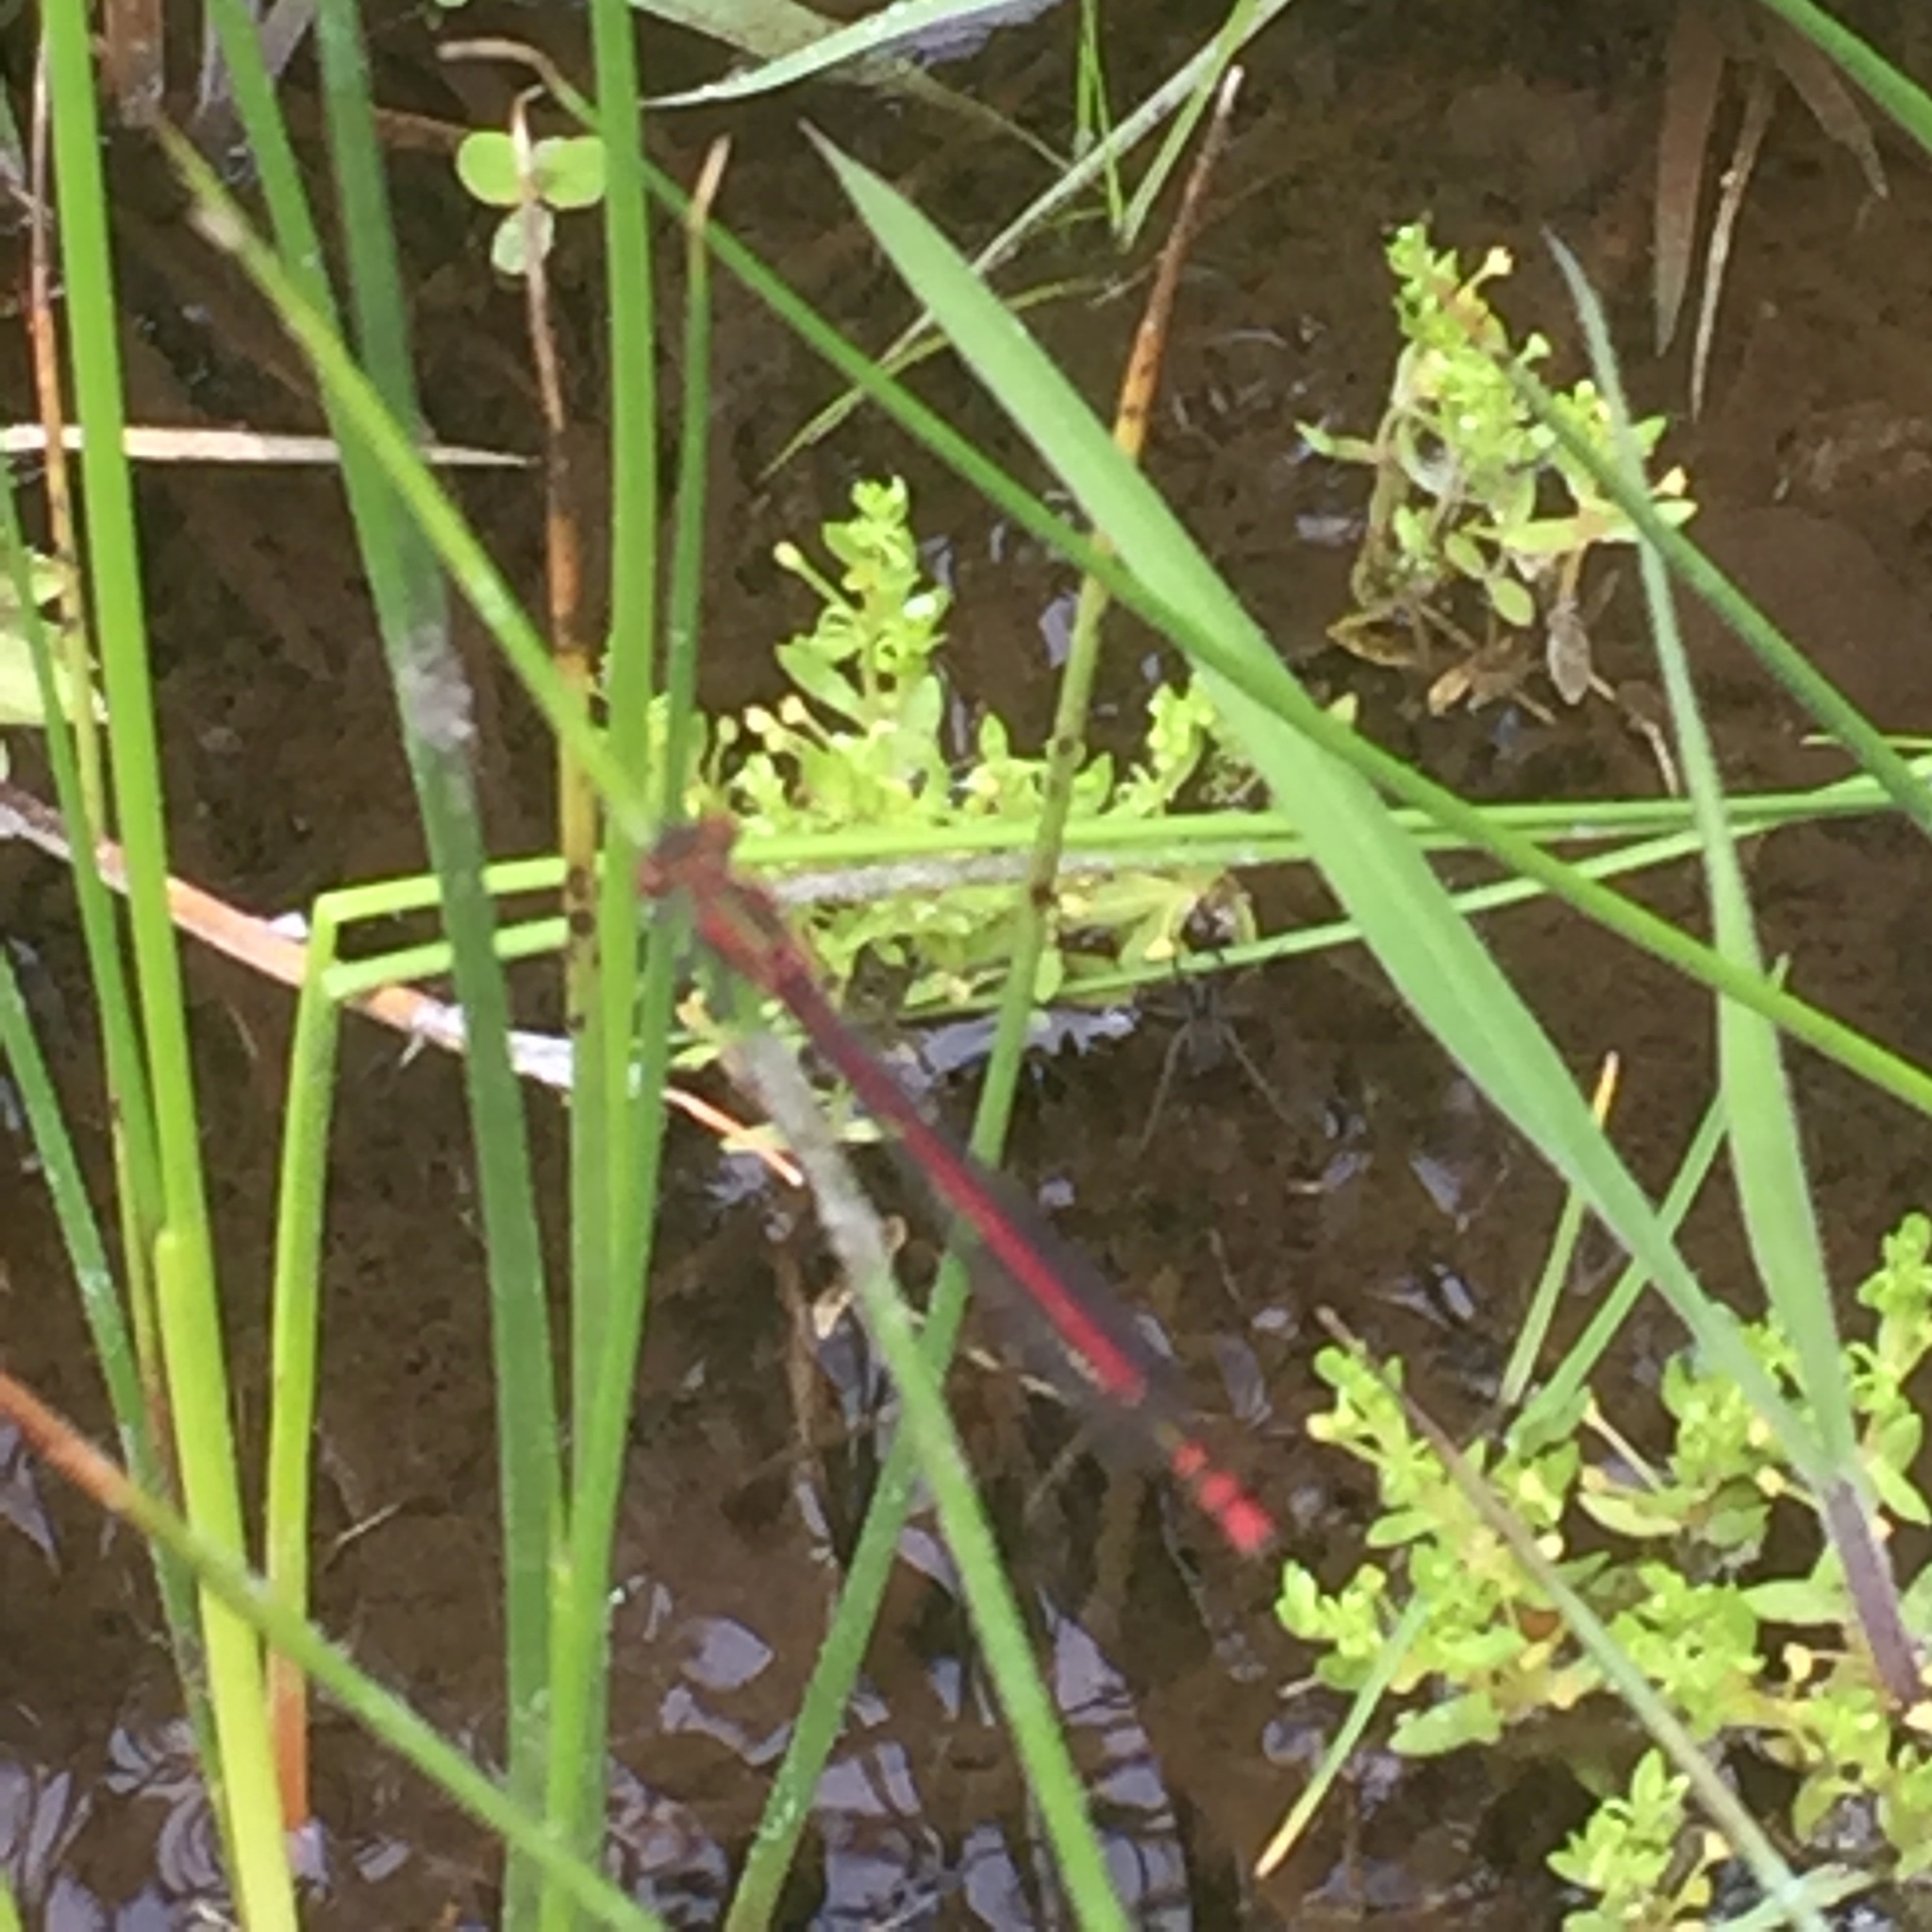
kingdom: Animalia
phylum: Arthropoda
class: Insecta
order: Odonata
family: Coenagrionidae
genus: Pyrrhosoma
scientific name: Pyrrhosoma nymphula
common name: Large red damsel
